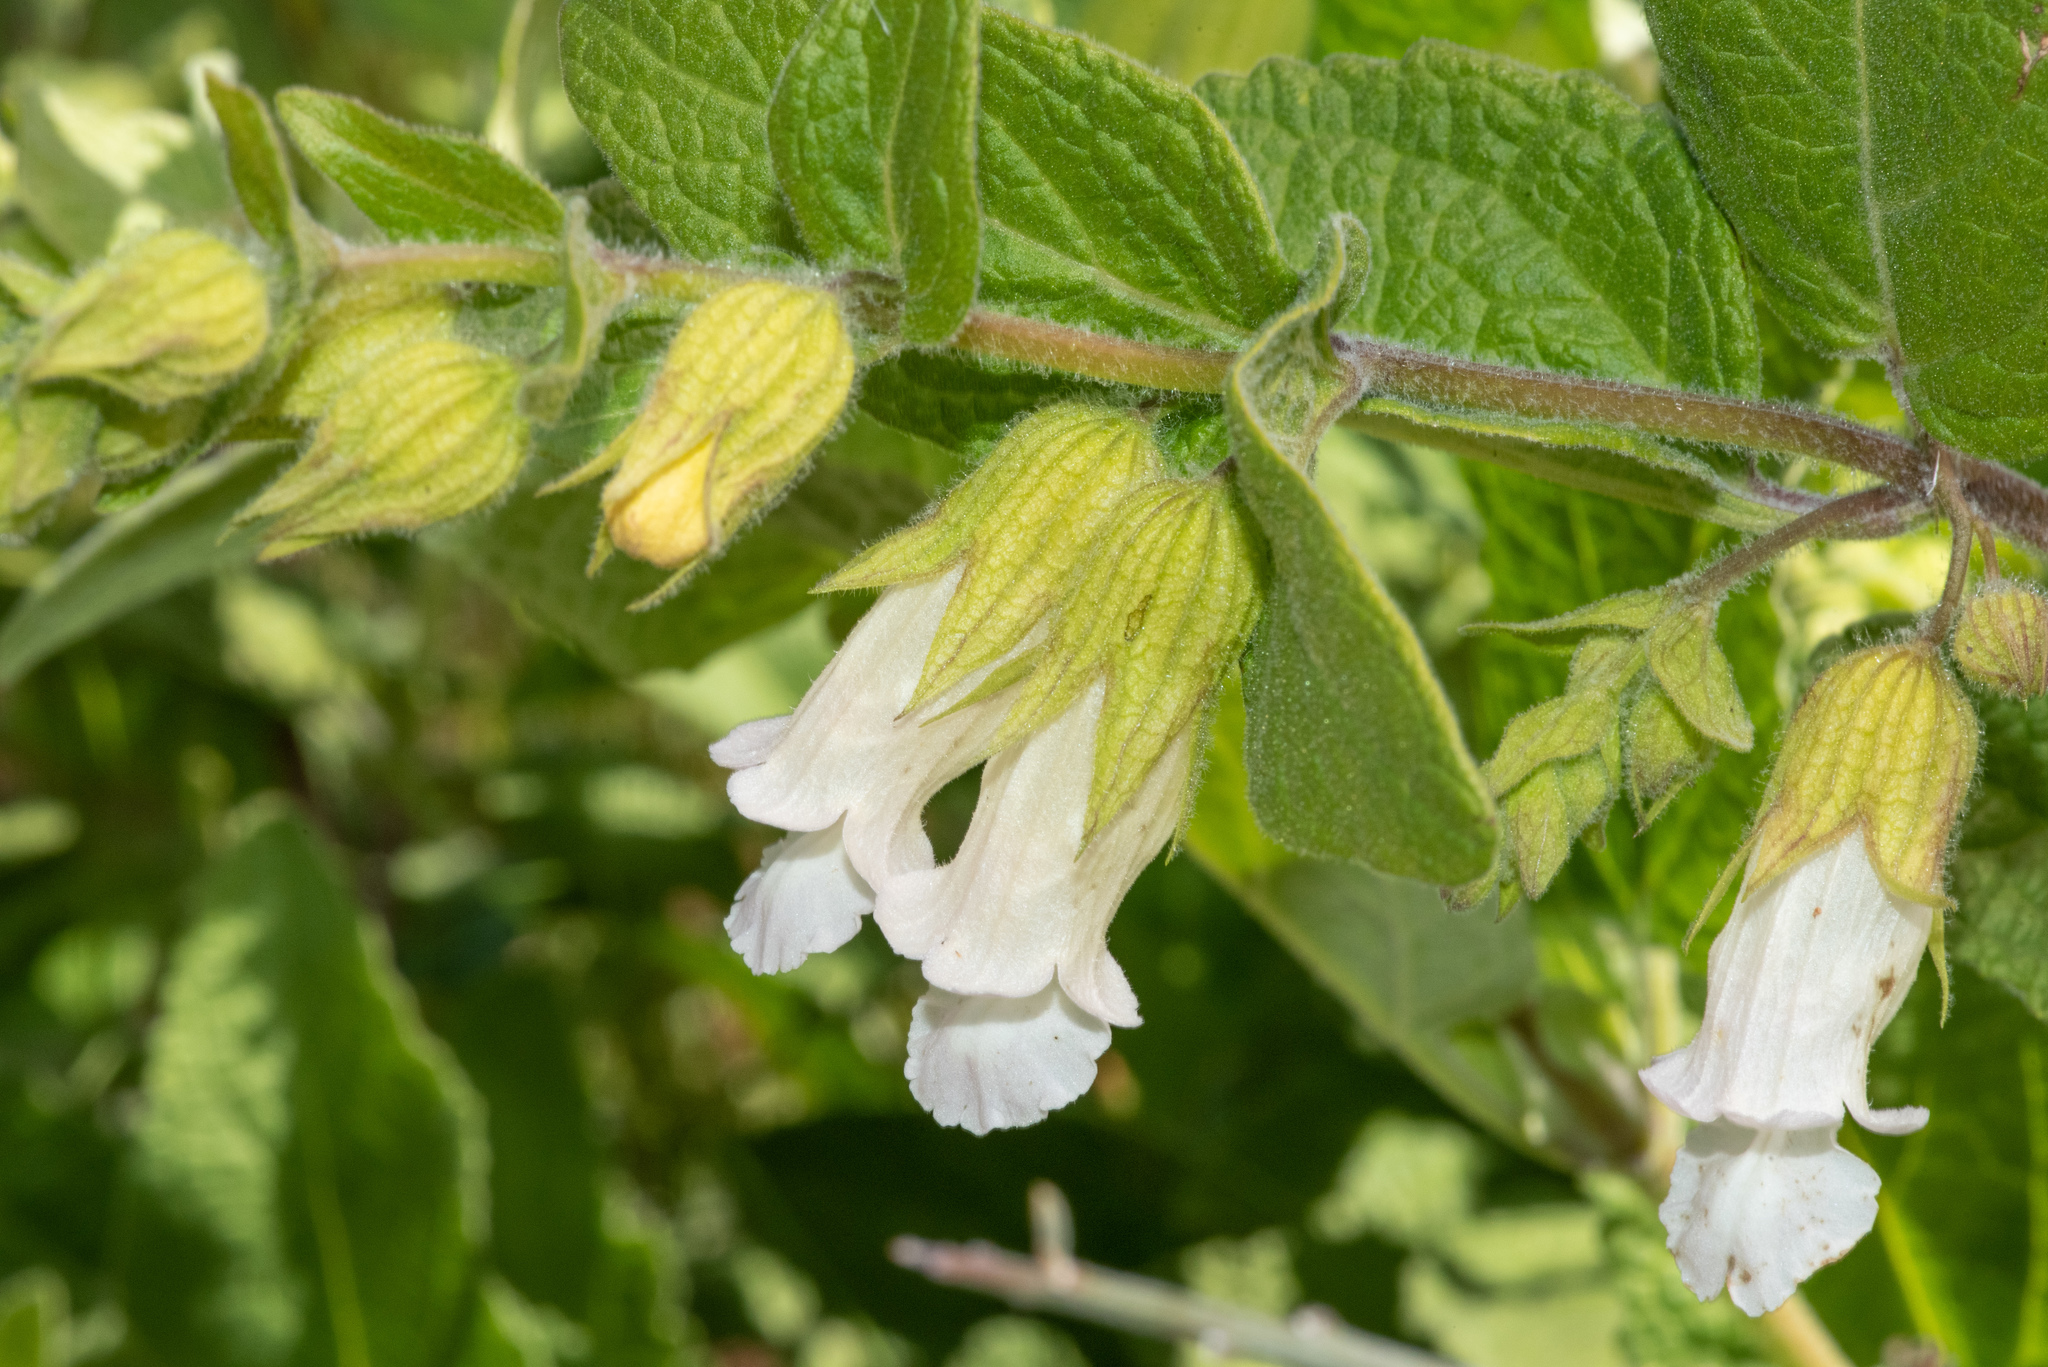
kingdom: Plantae
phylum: Tracheophyta
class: Magnoliopsida
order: Lamiales
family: Lamiaceae
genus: Lepechinia
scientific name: Lepechinia calycina
